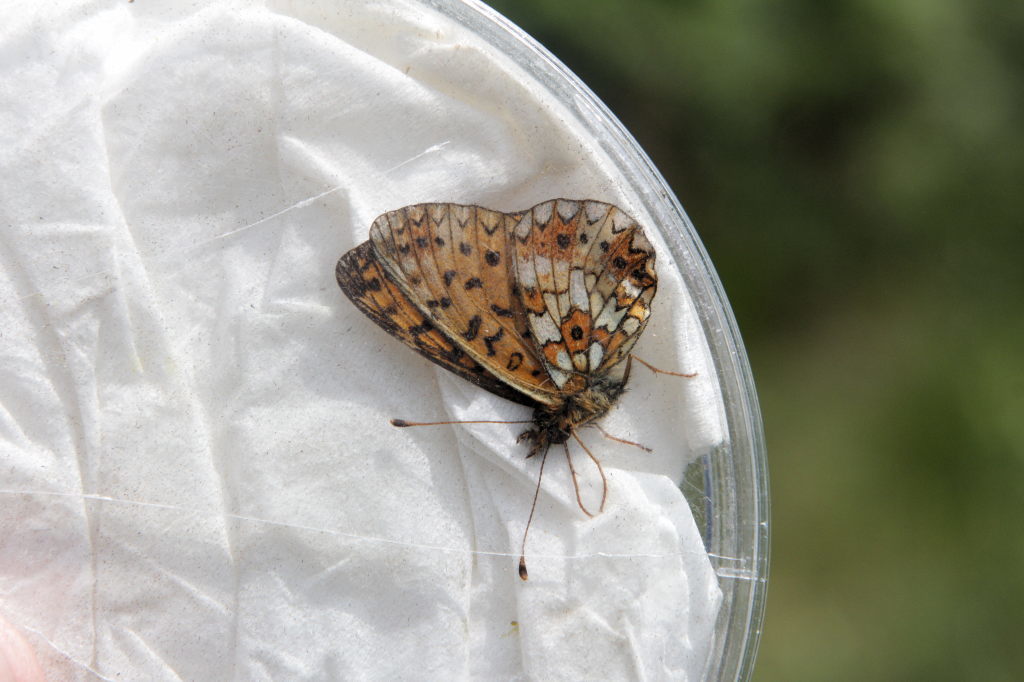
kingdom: Animalia
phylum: Arthropoda
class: Insecta
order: Lepidoptera
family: Nymphalidae
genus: Boloria
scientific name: Boloria selene
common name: Small pearl-bordered fritillary
